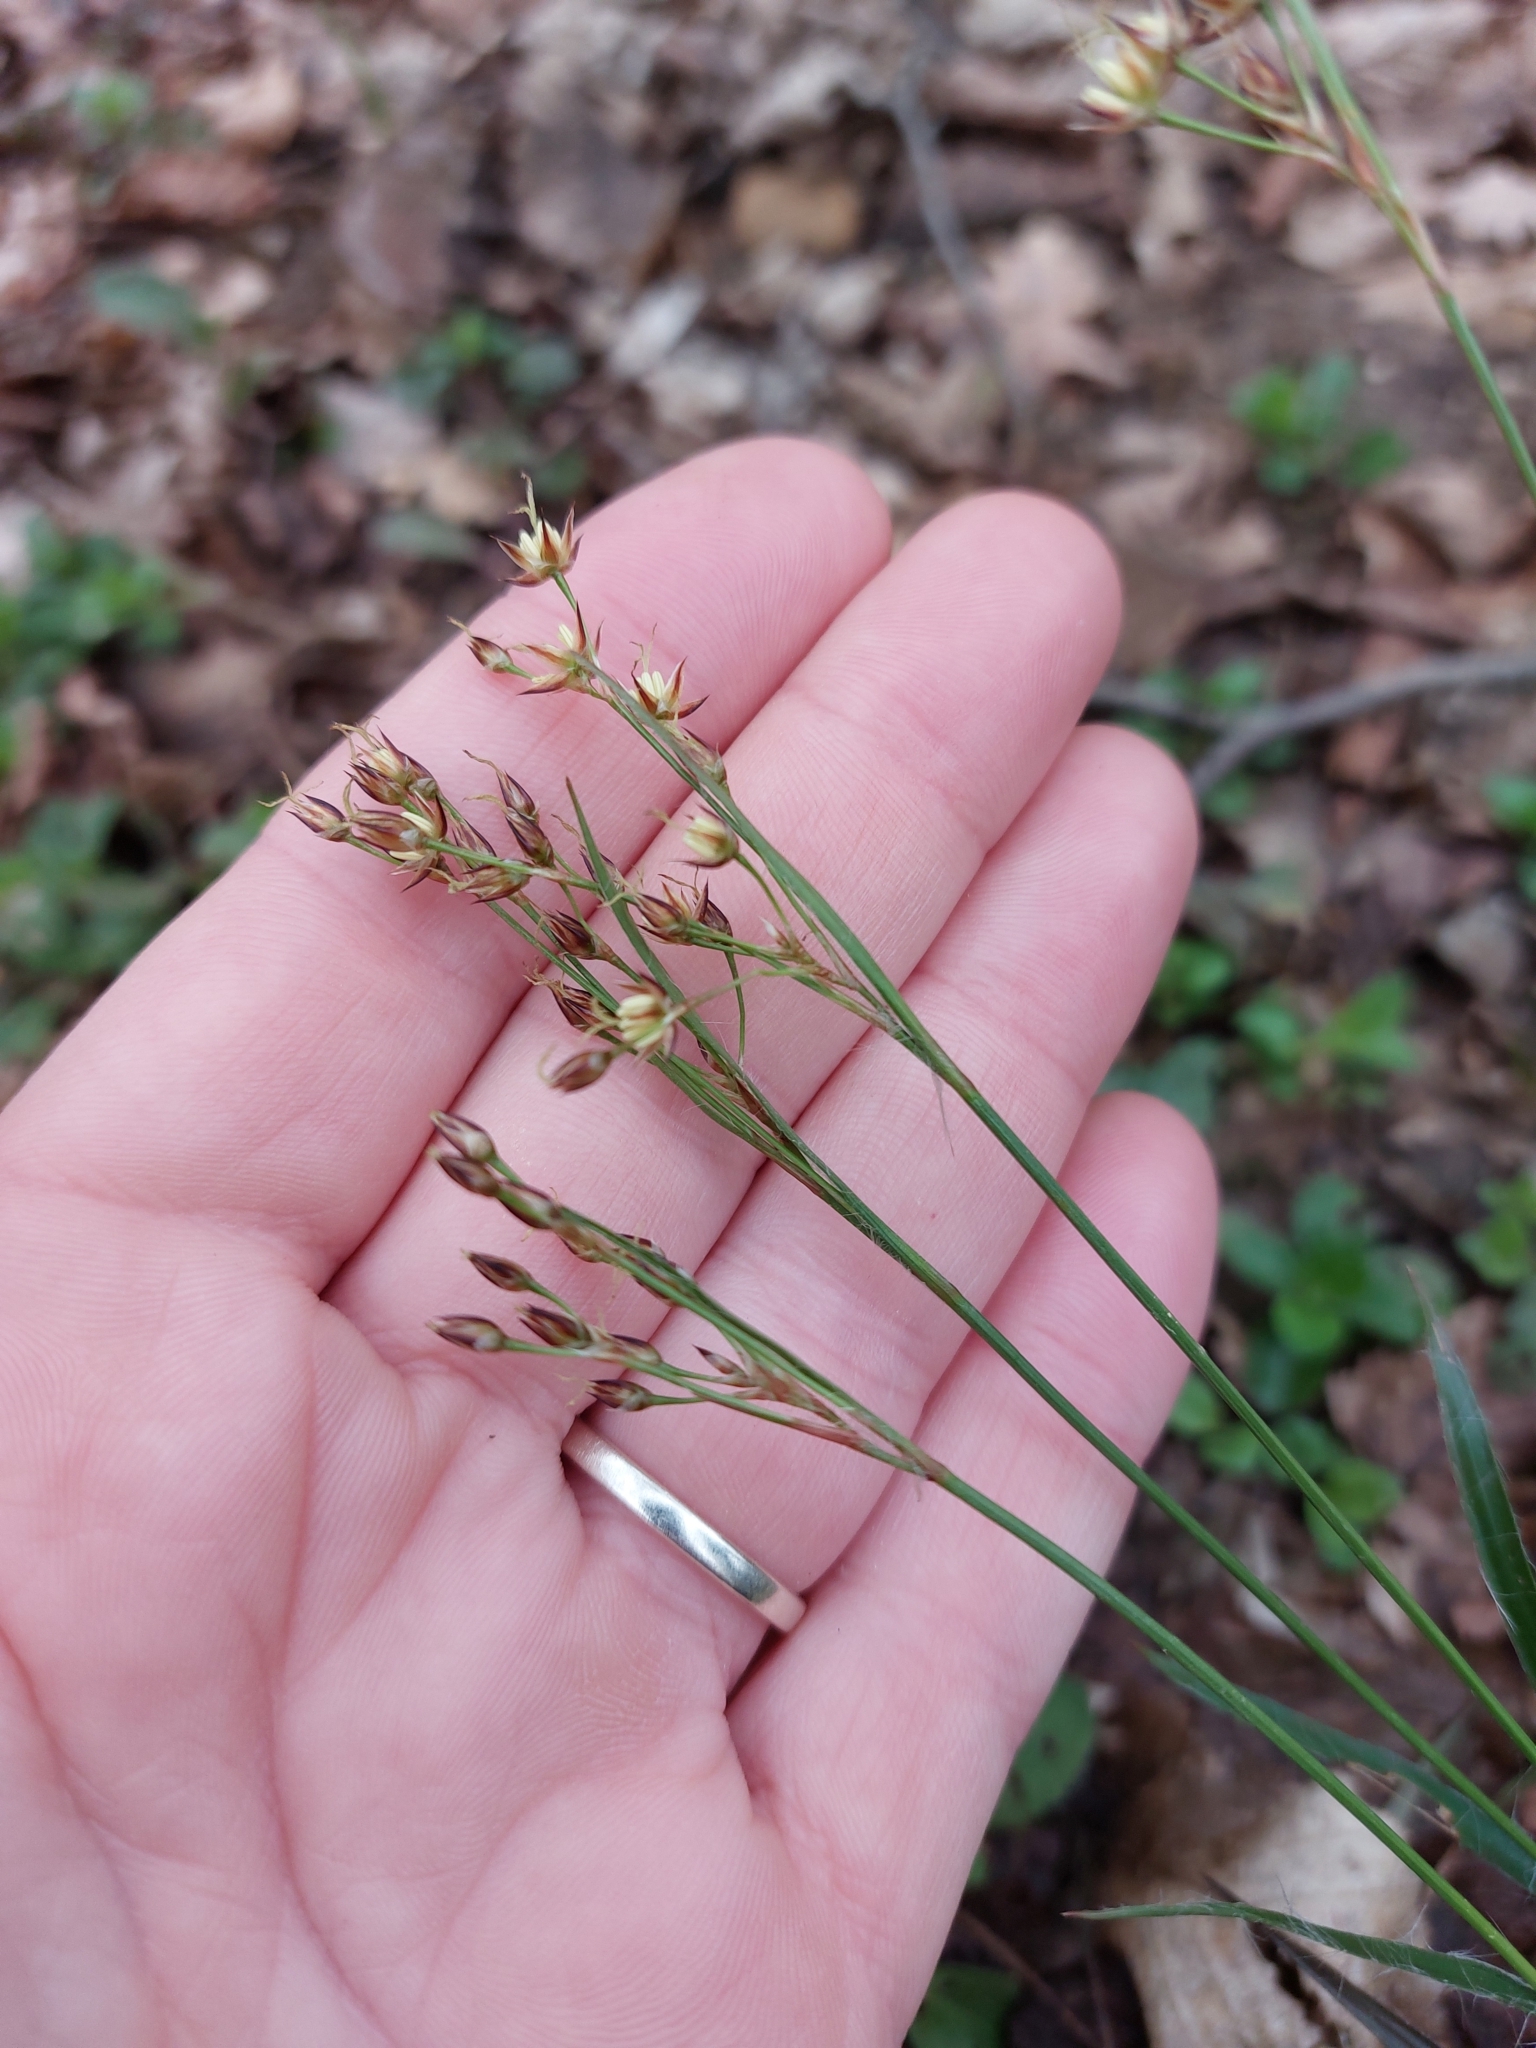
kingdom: Plantae
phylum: Tracheophyta
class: Liliopsida
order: Poales
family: Juncaceae
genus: Luzula
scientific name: Luzula forsteri
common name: Southern wood-rush
